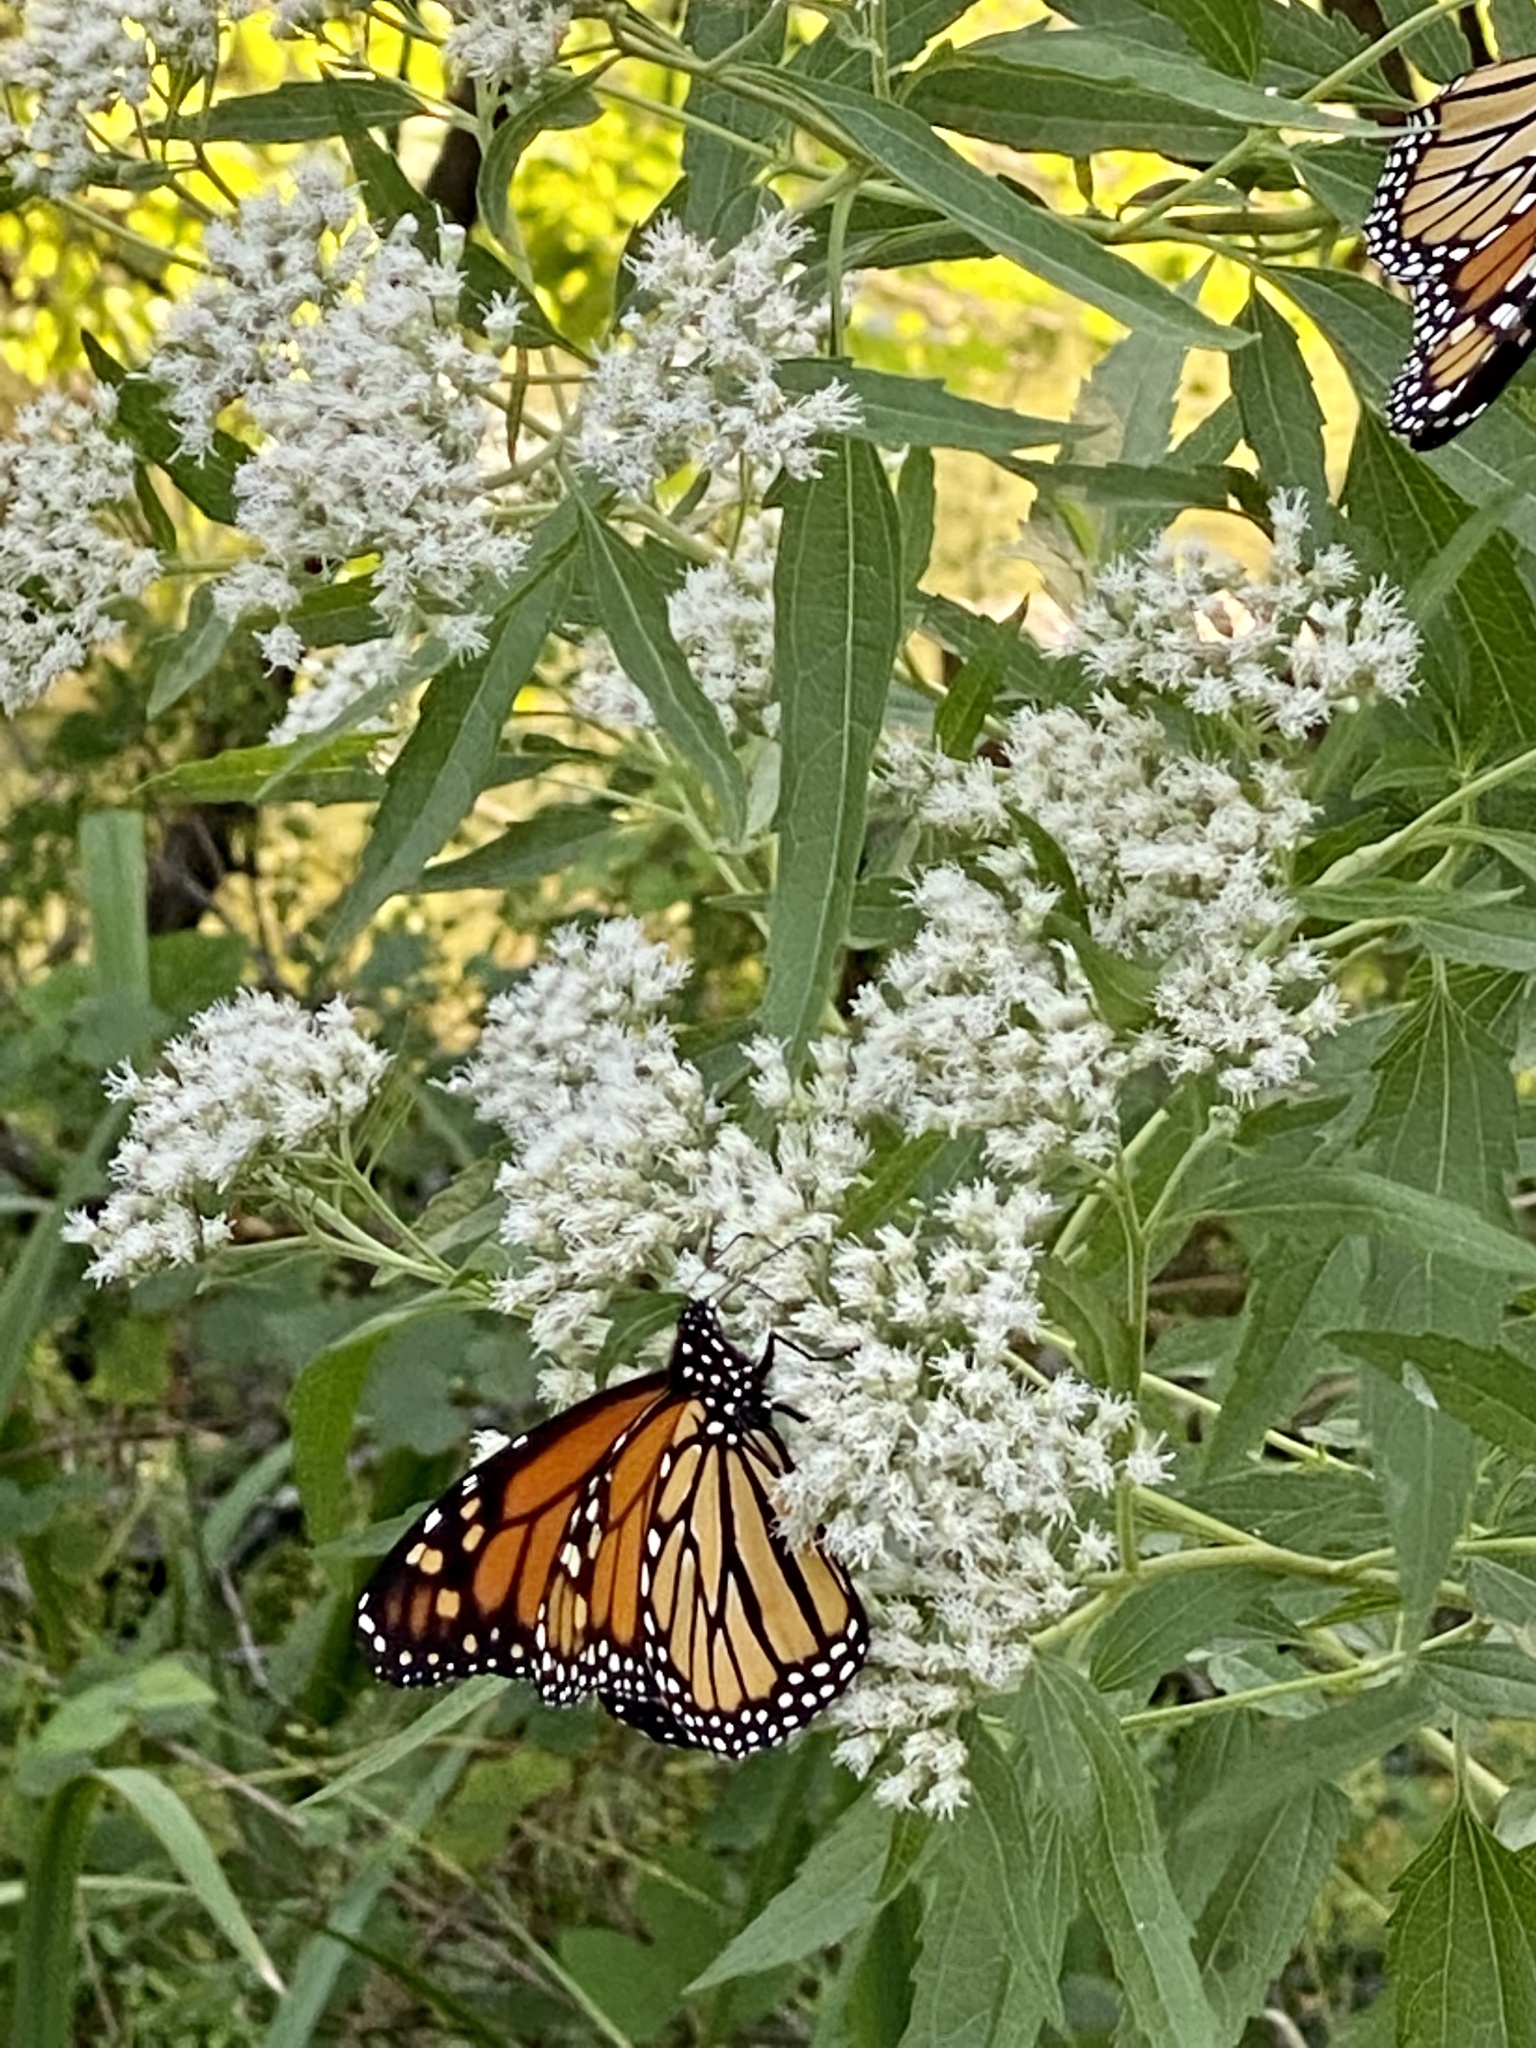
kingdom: Animalia
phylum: Arthropoda
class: Insecta
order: Lepidoptera
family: Nymphalidae
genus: Danaus
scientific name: Danaus plexippus
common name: Monarch
